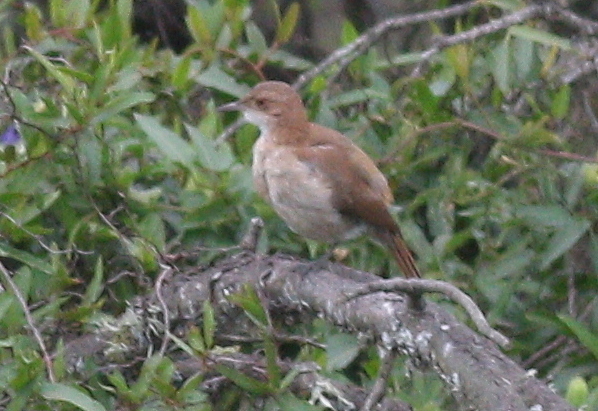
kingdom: Animalia
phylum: Chordata
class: Aves
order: Passeriformes
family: Furnariidae
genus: Furnarius
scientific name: Furnarius rufus
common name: Rufous hornero
